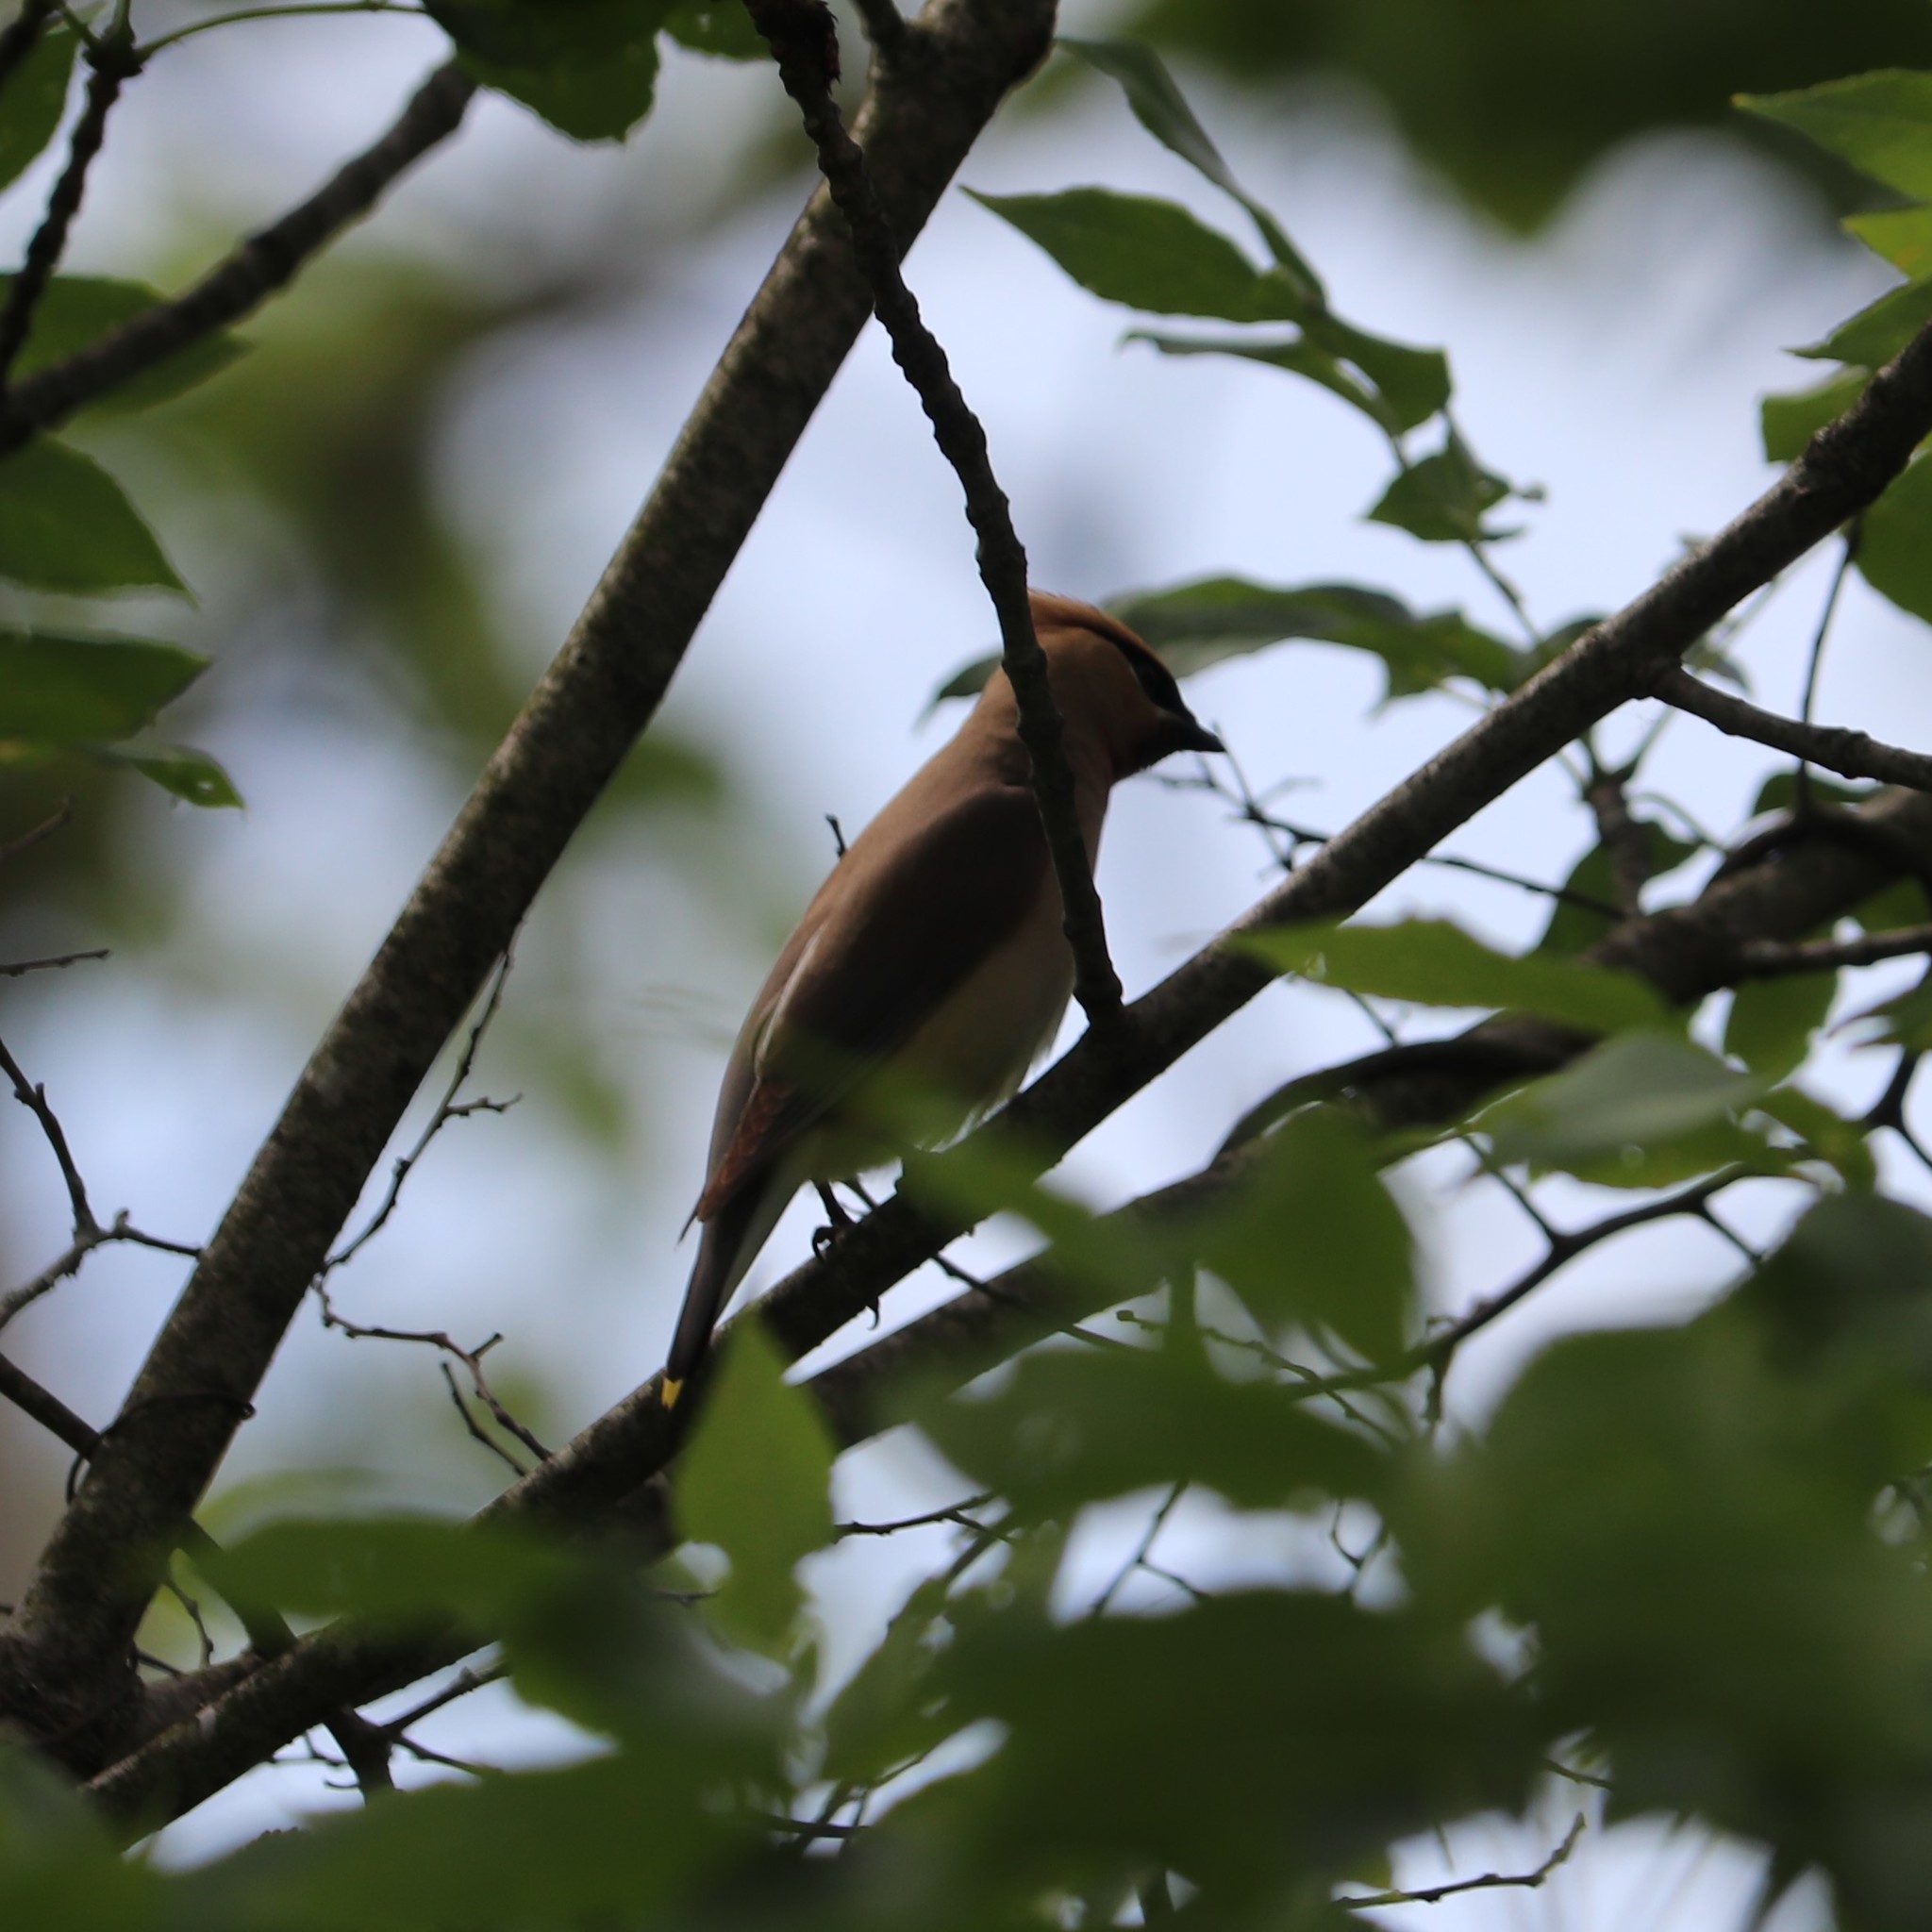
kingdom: Animalia
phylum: Chordata
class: Aves
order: Passeriformes
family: Bombycillidae
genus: Bombycilla
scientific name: Bombycilla cedrorum
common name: Cedar waxwing
